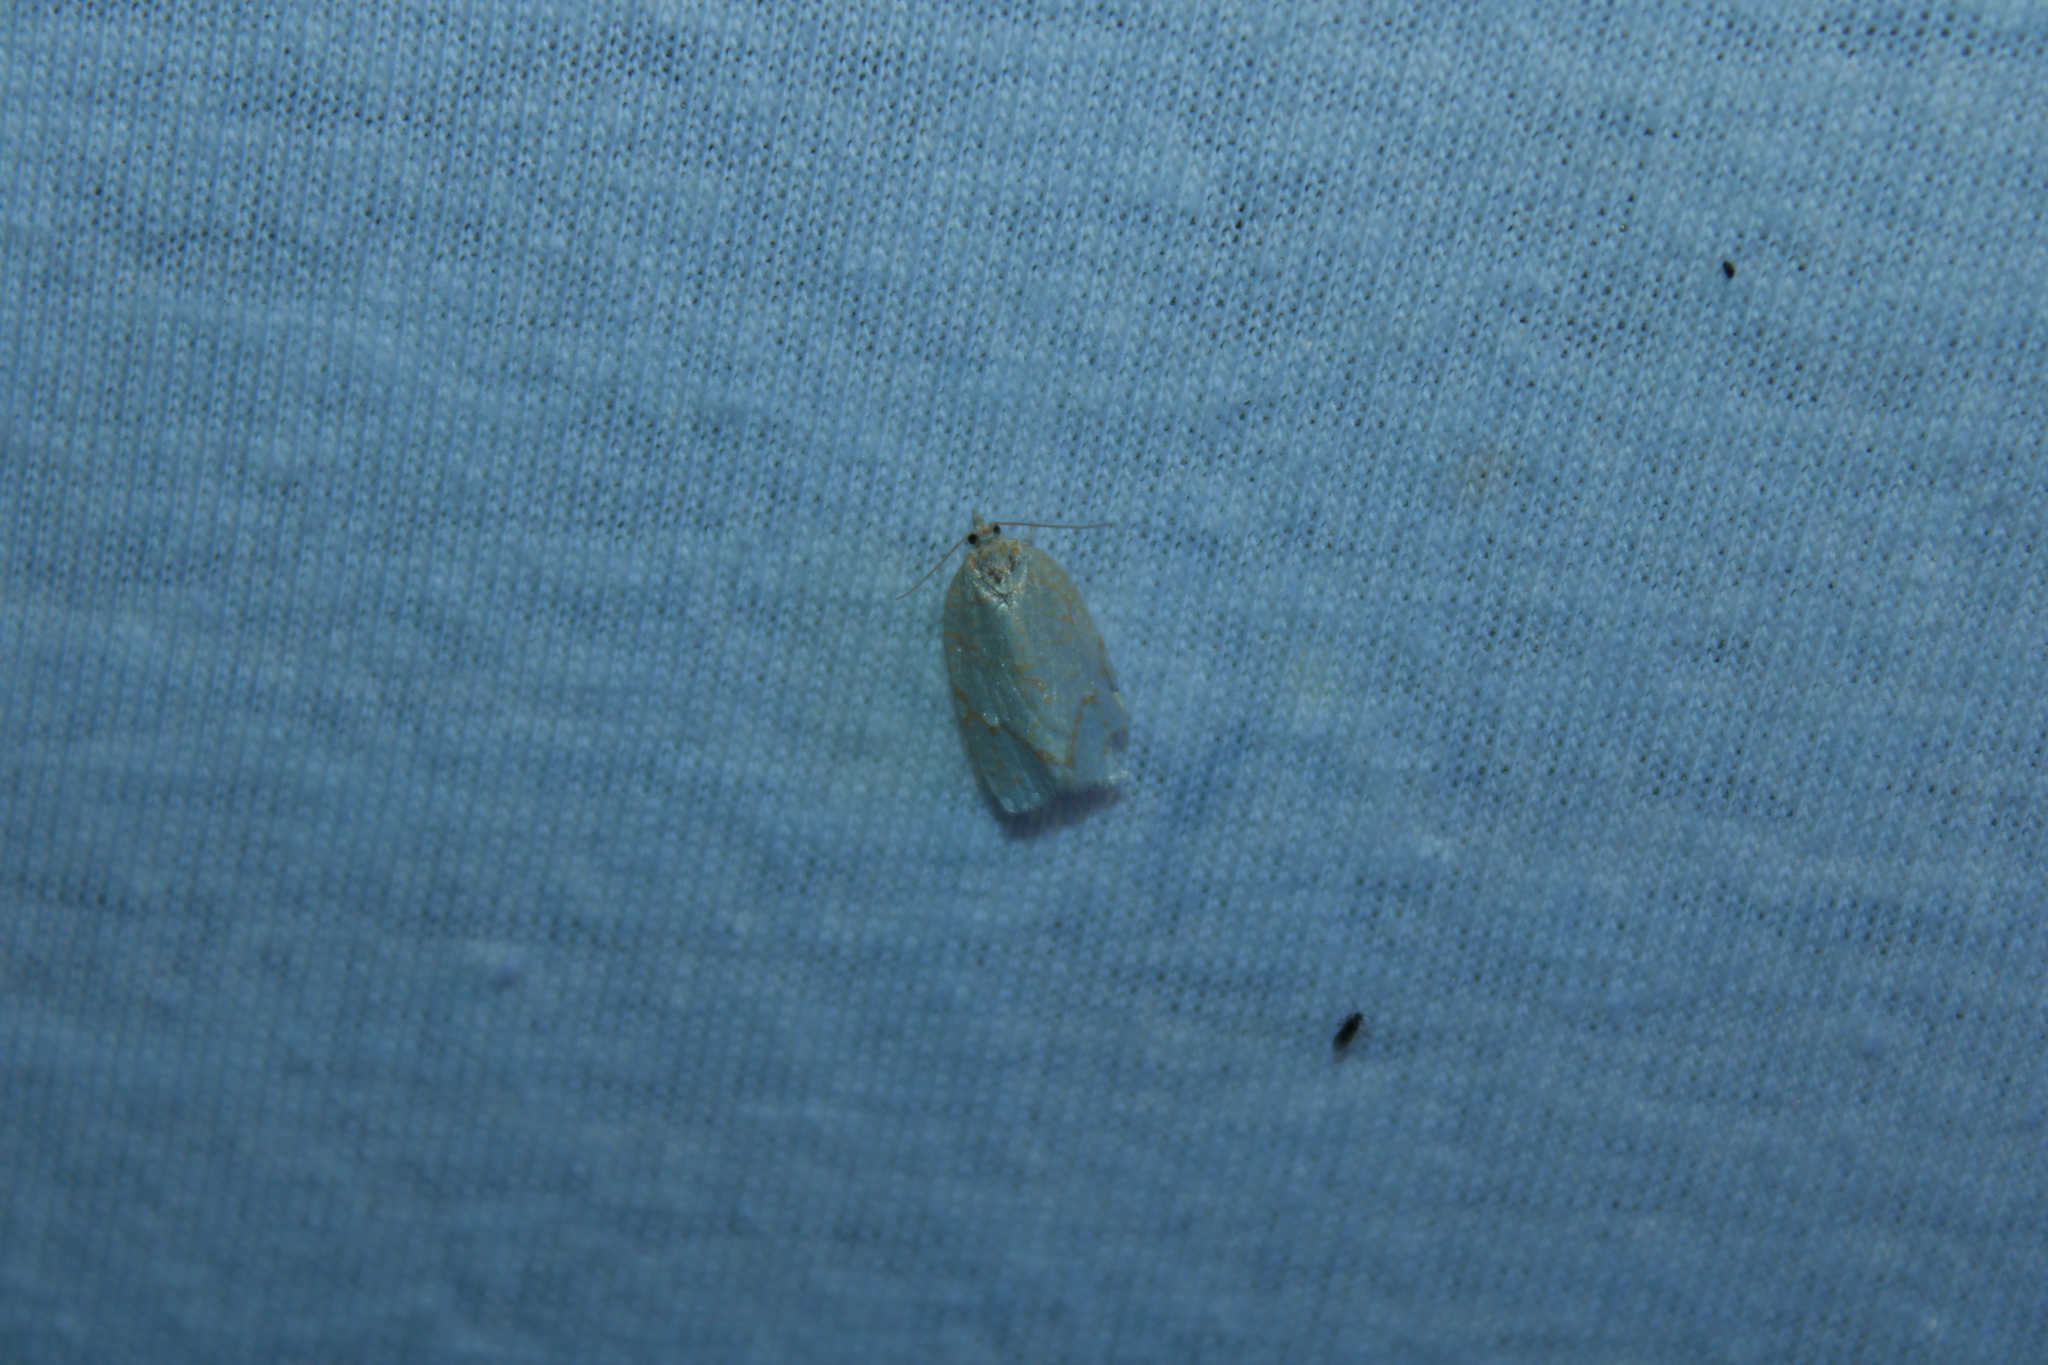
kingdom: Animalia
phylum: Arthropoda
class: Insecta
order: Lepidoptera
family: Tortricidae
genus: Argyrotaenia
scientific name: Argyrotaenia quercifoliana
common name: Yellow-winged oak leafroller moth
